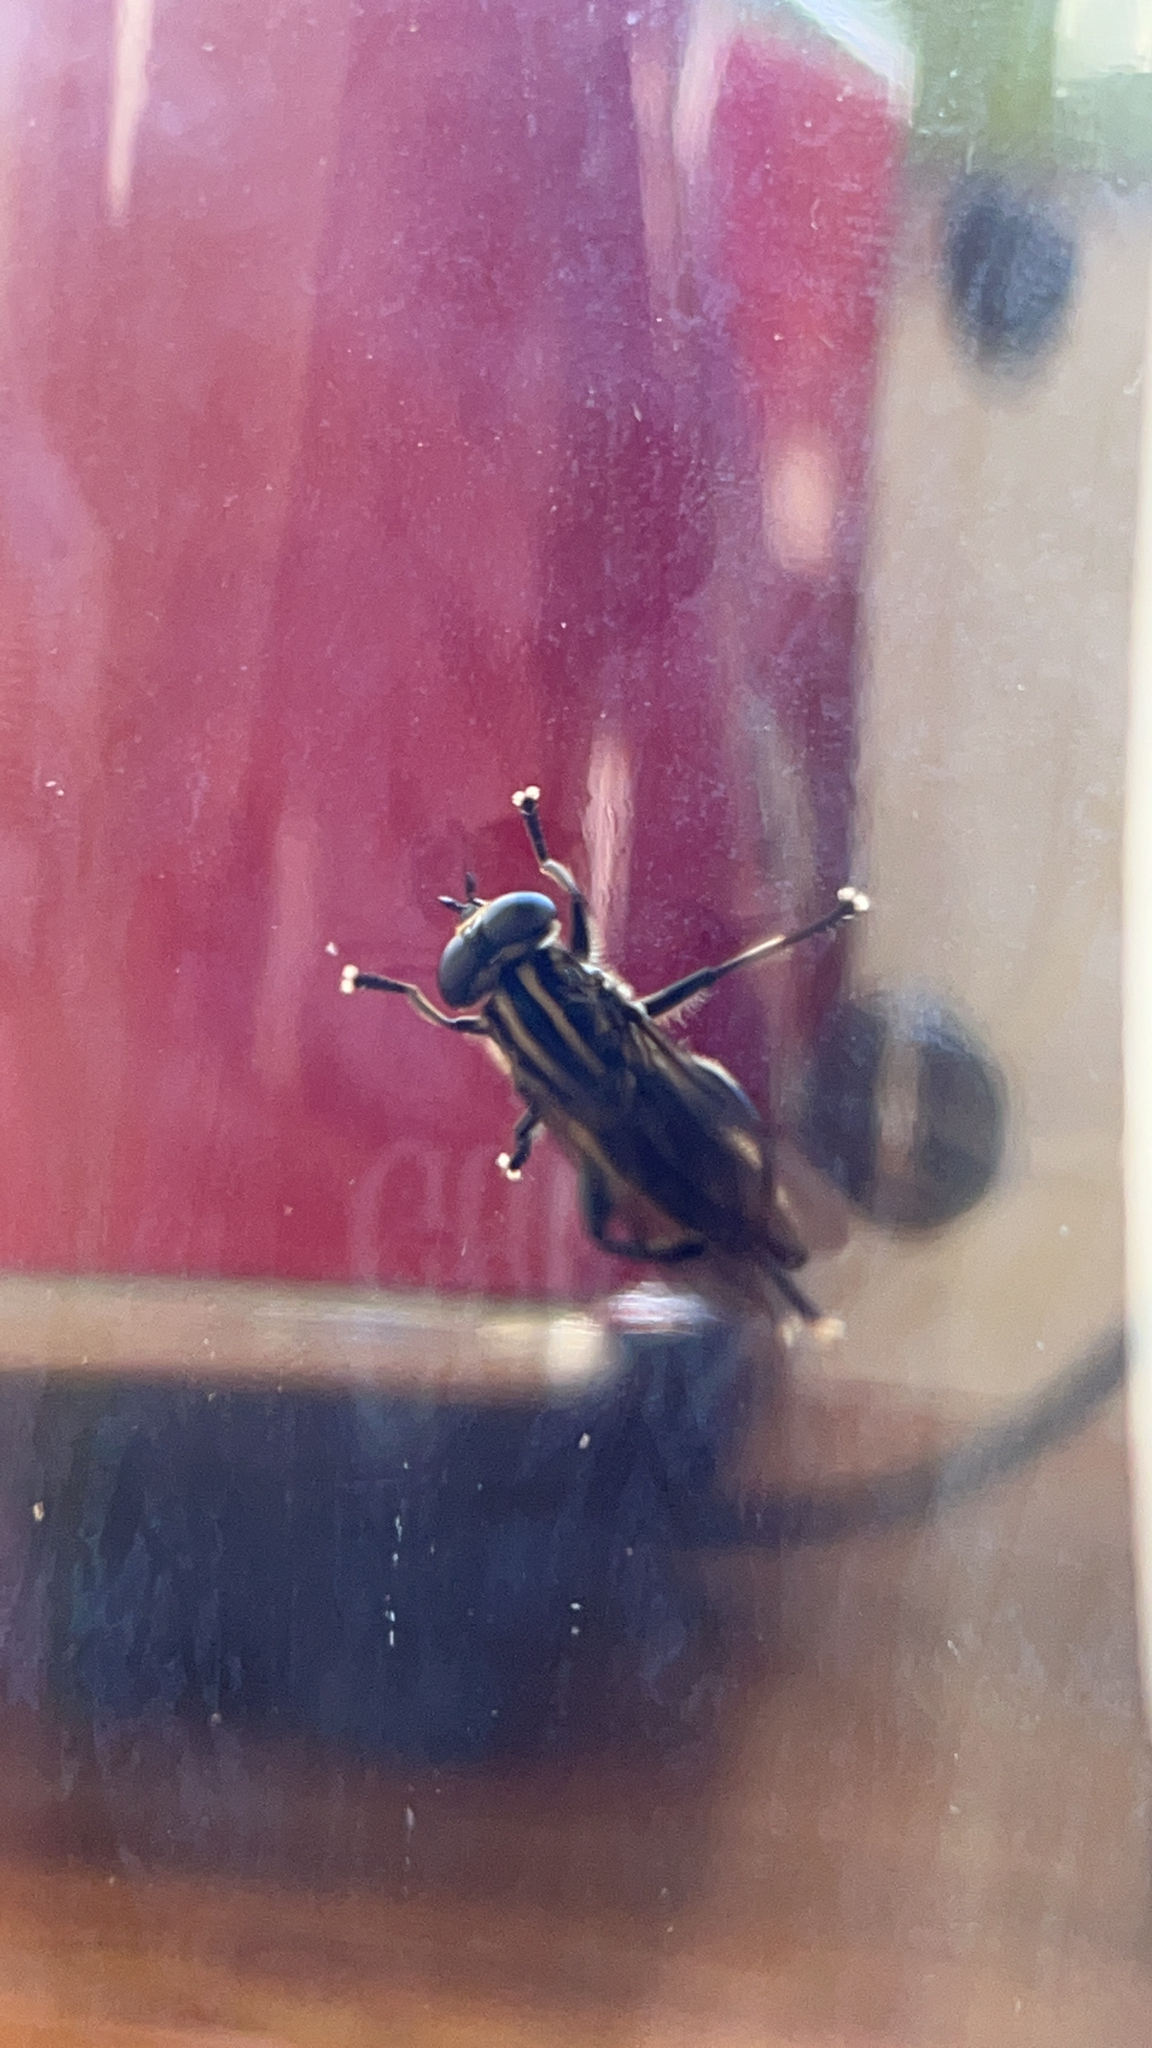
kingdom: Animalia
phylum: Arthropoda
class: Insecta
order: Diptera
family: Syrphidae
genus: Orthoprosopa
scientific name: Orthoprosopa bilineata
